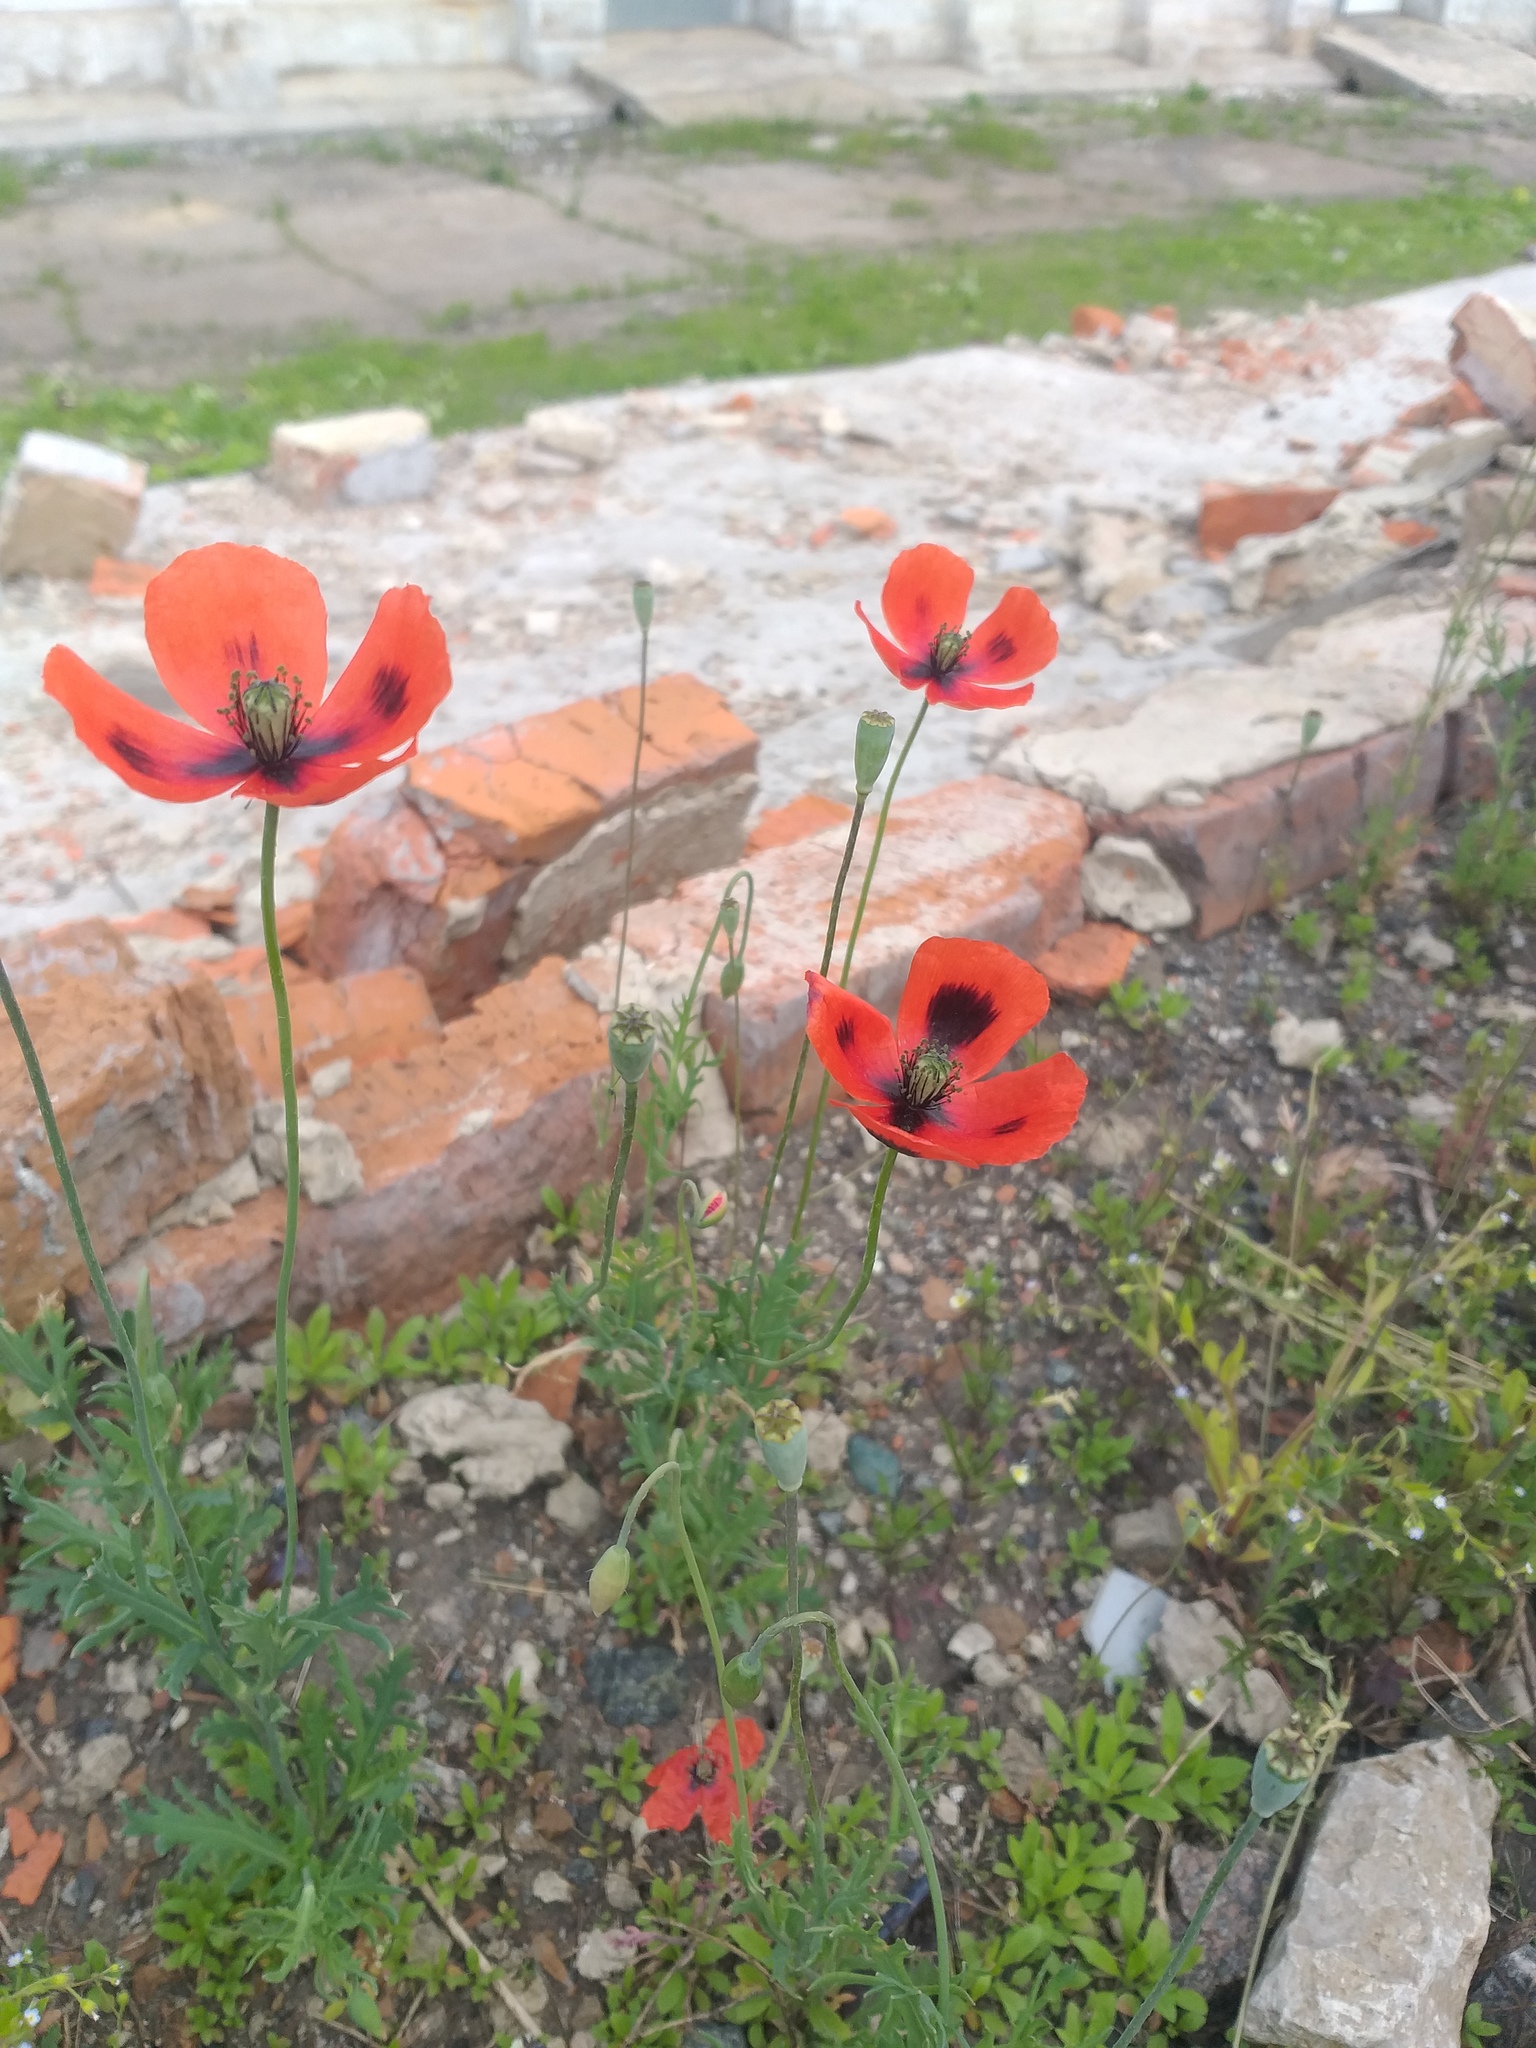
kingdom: Plantae
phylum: Tracheophyta
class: Magnoliopsida
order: Ranunculales
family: Papaveraceae
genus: Papaver
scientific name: Papaver dubium
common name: Long-headed poppy
